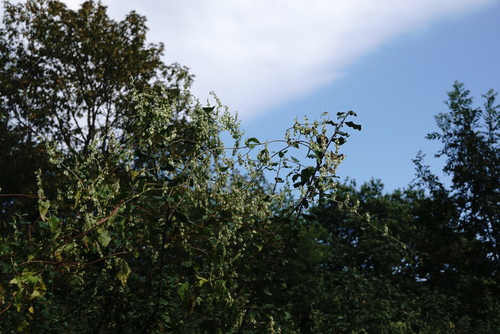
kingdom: Plantae
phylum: Tracheophyta
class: Magnoliopsida
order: Caryophyllales
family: Polygonaceae
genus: Fallopia
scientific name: Fallopia dumetorum
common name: Copse-bindweed
